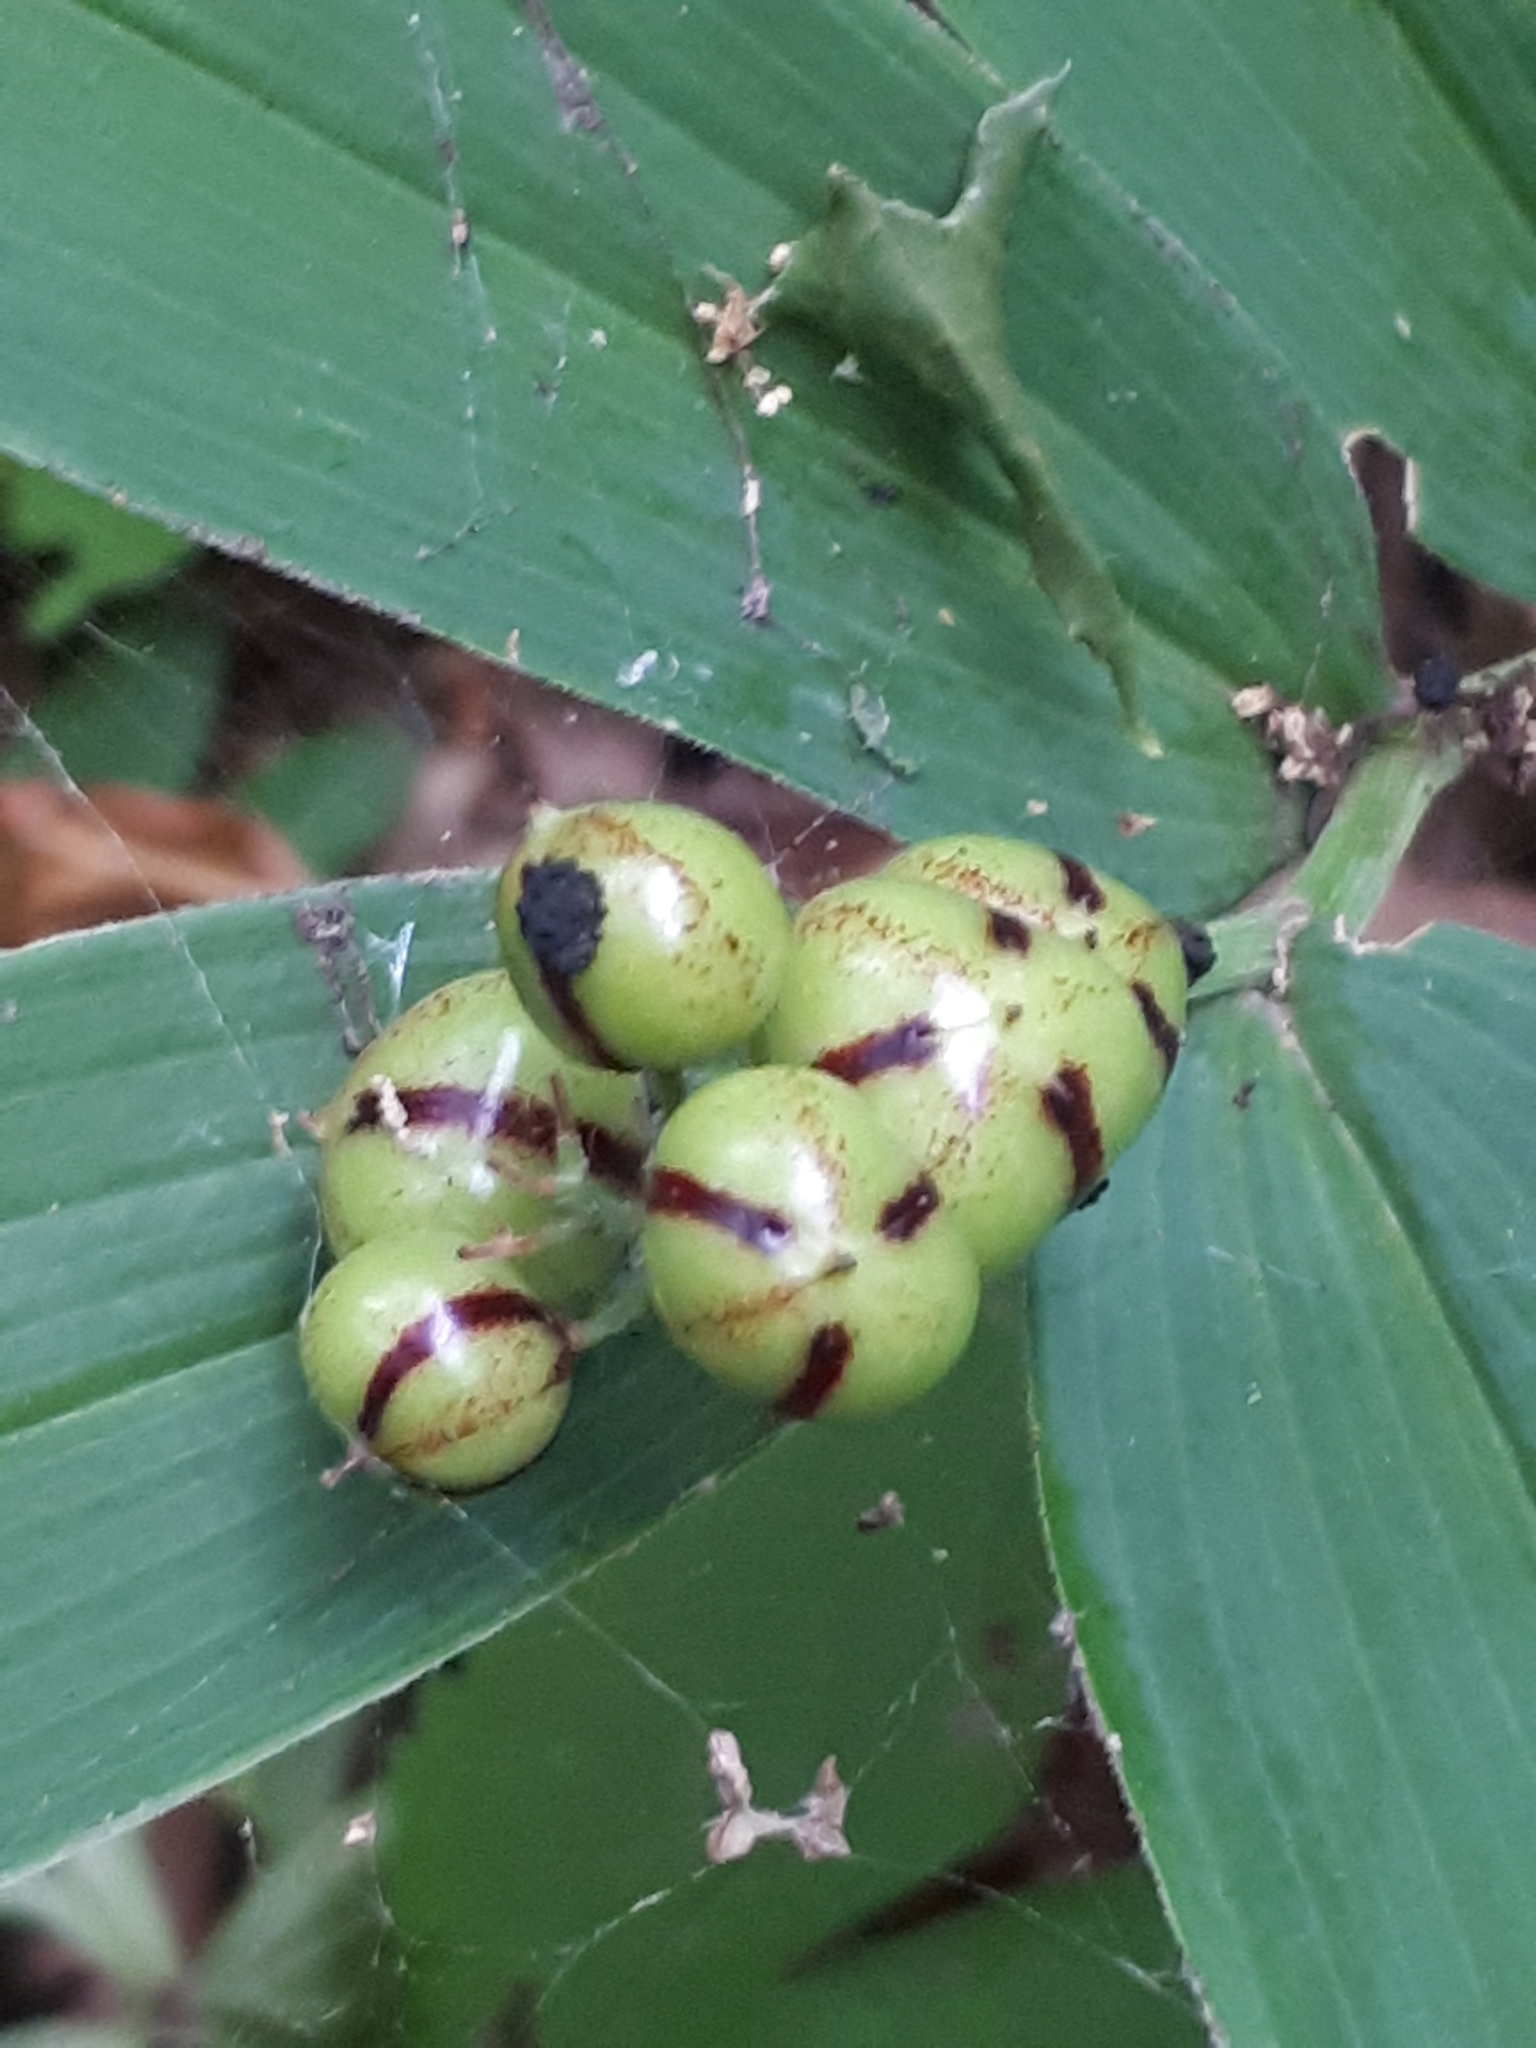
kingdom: Plantae
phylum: Tracheophyta
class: Liliopsida
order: Asparagales
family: Asparagaceae
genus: Maianthemum
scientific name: Maianthemum stellatum
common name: Little false solomon's seal
